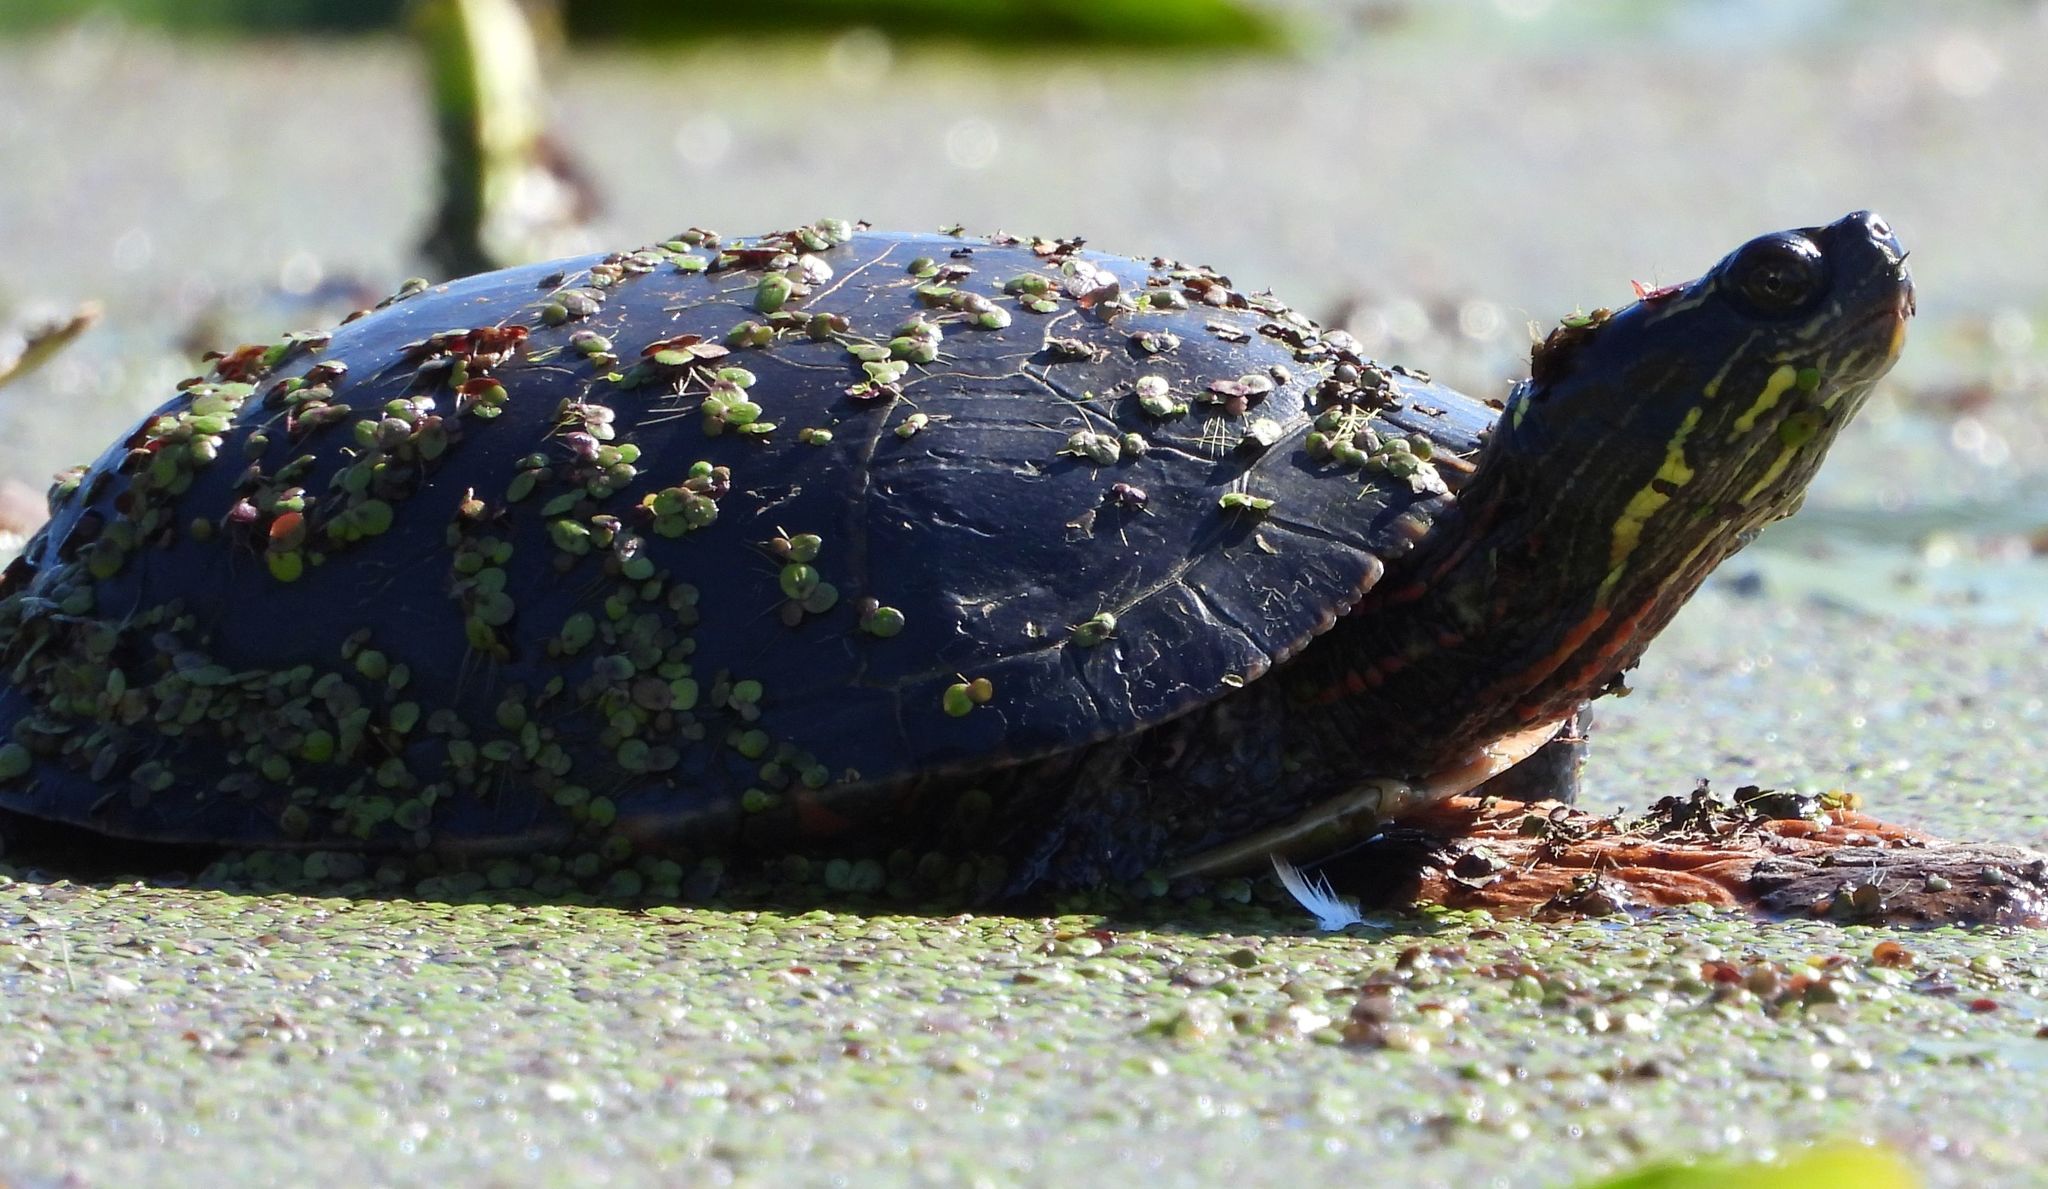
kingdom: Animalia
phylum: Chordata
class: Testudines
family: Emydidae
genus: Chrysemys
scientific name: Chrysemys picta
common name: Painted turtle
